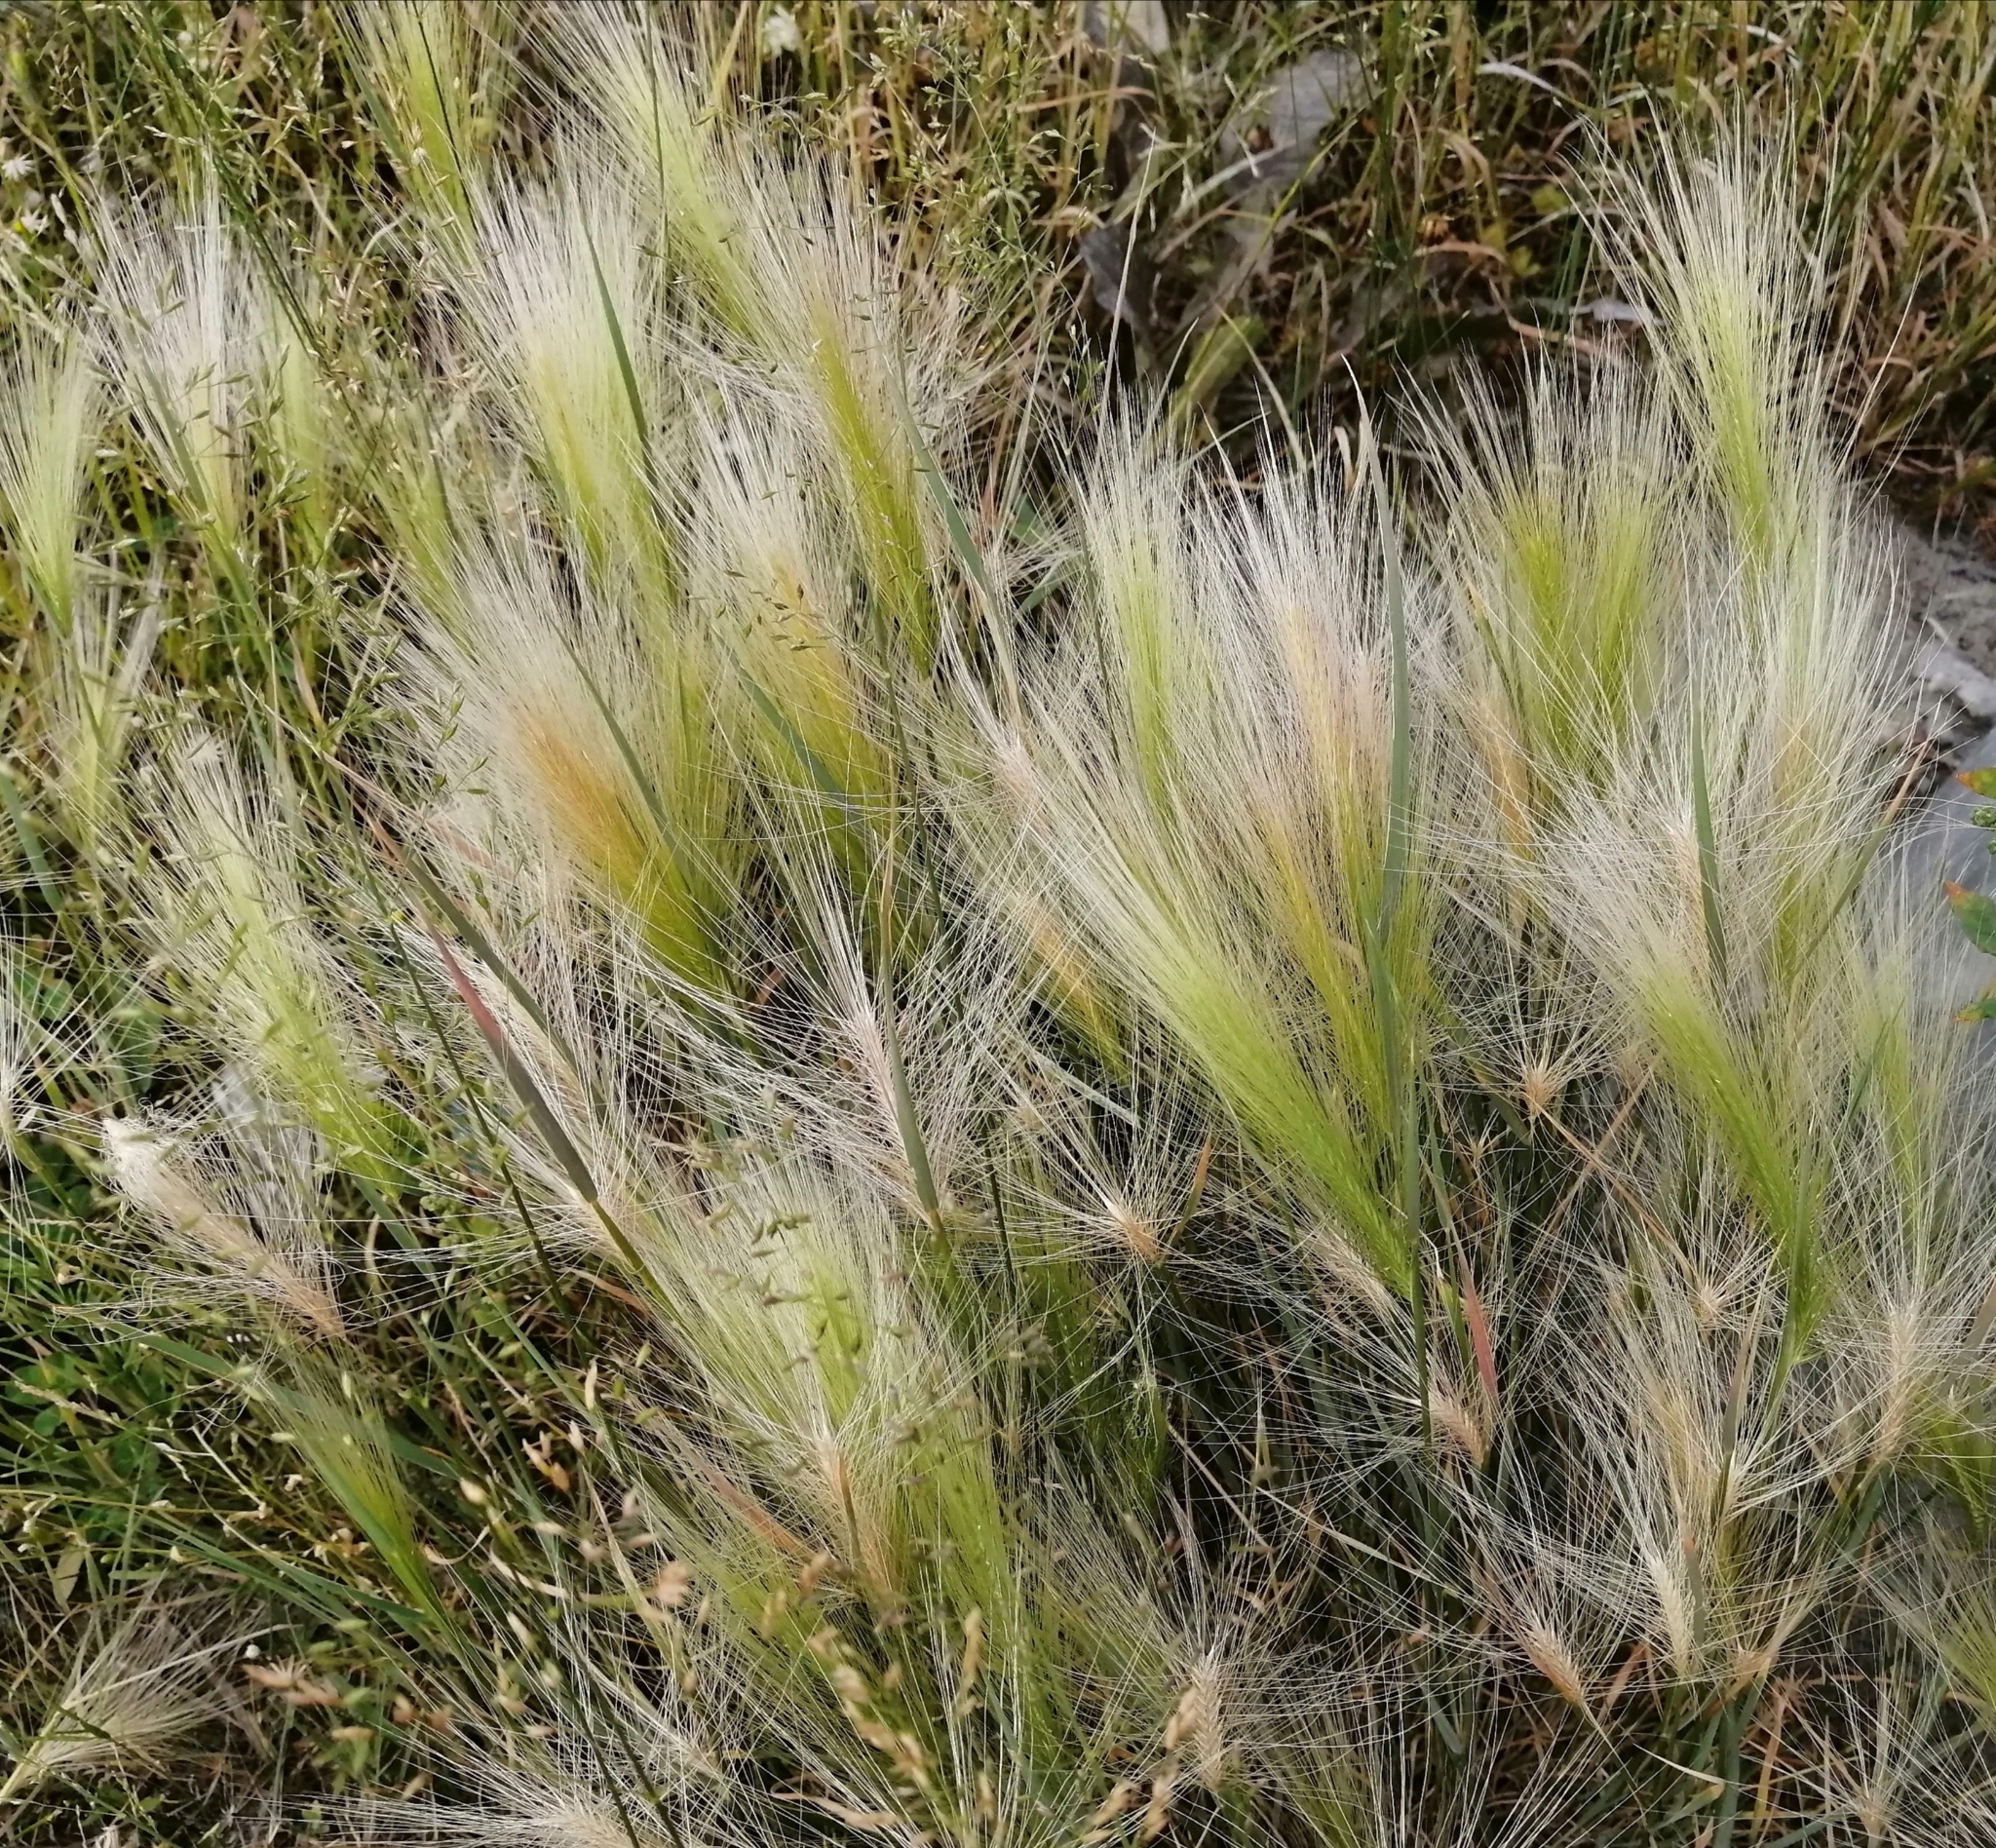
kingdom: Plantae
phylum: Tracheophyta
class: Liliopsida
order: Poales
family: Poaceae
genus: Hordeum
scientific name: Hordeum jubatum
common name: Foxtail barley
